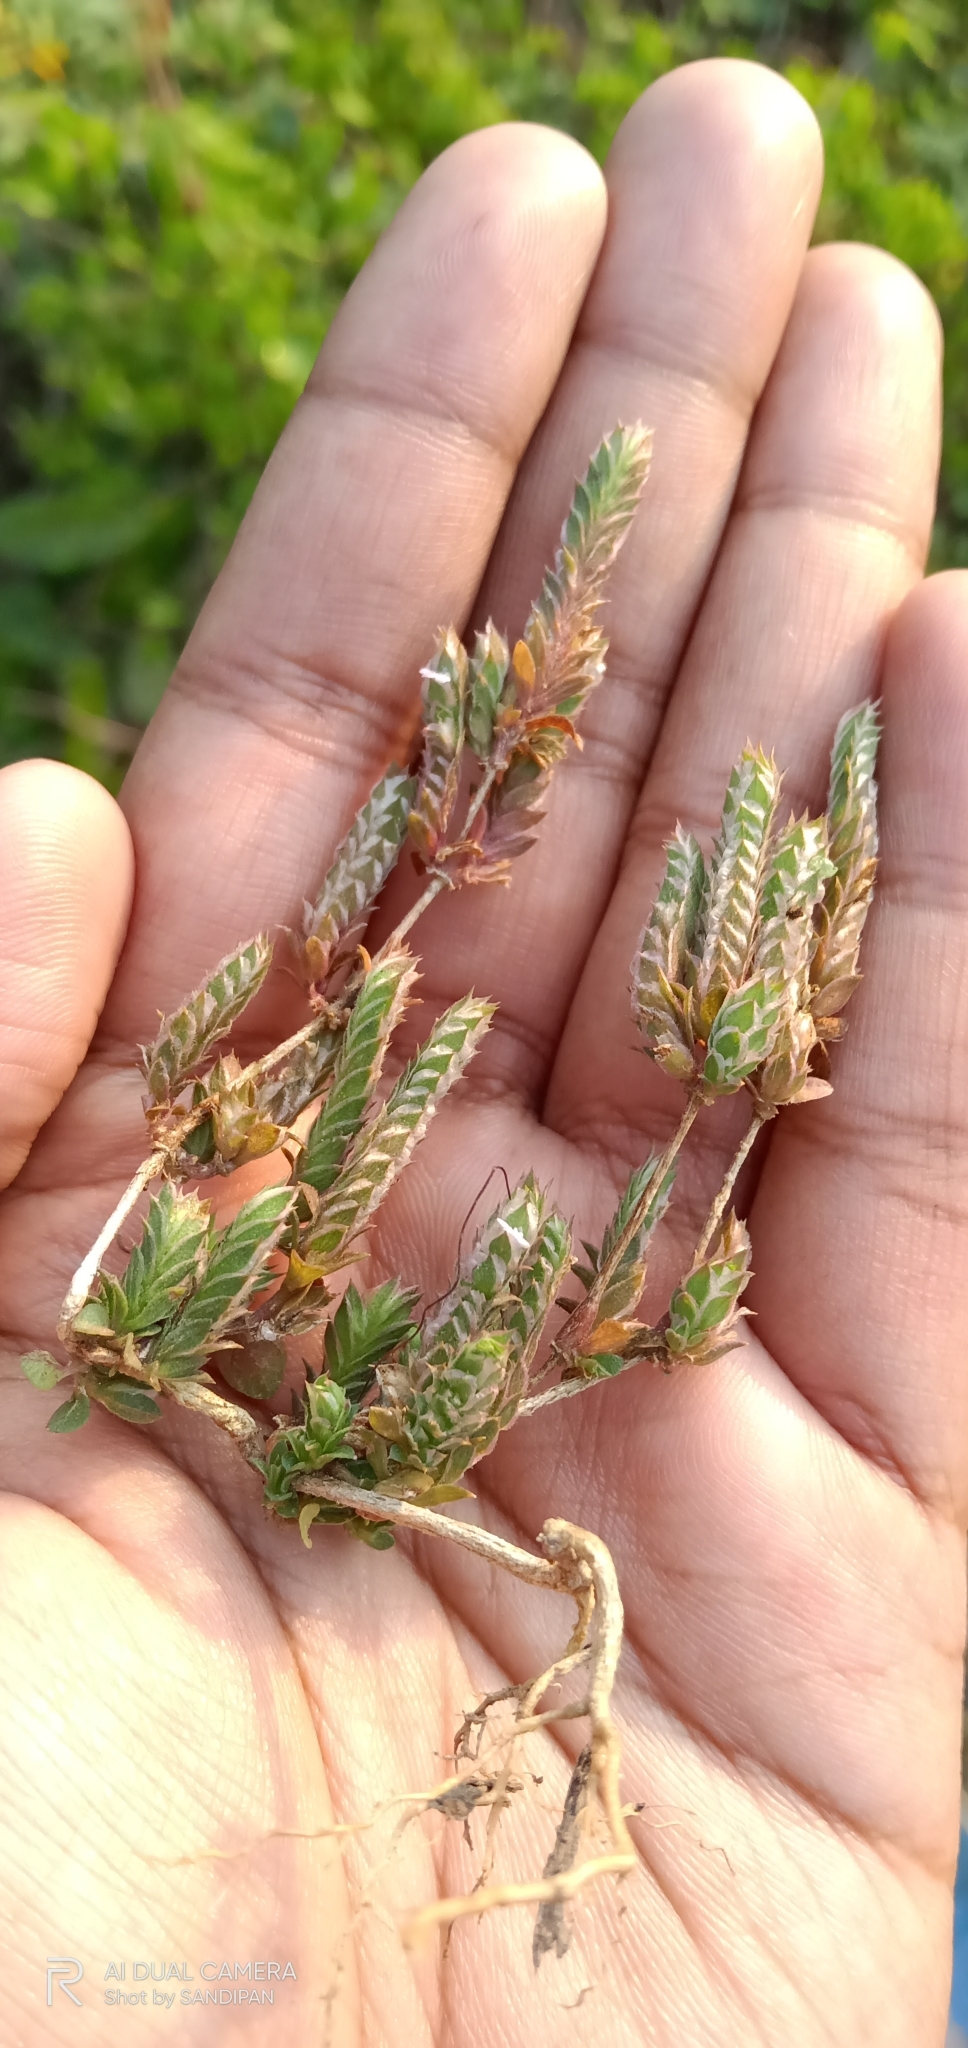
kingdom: Plantae
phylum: Tracheophyta
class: Magnoliopsida
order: Lamiales
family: Acanthaceae
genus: Rungia
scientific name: Rungia pectinata
